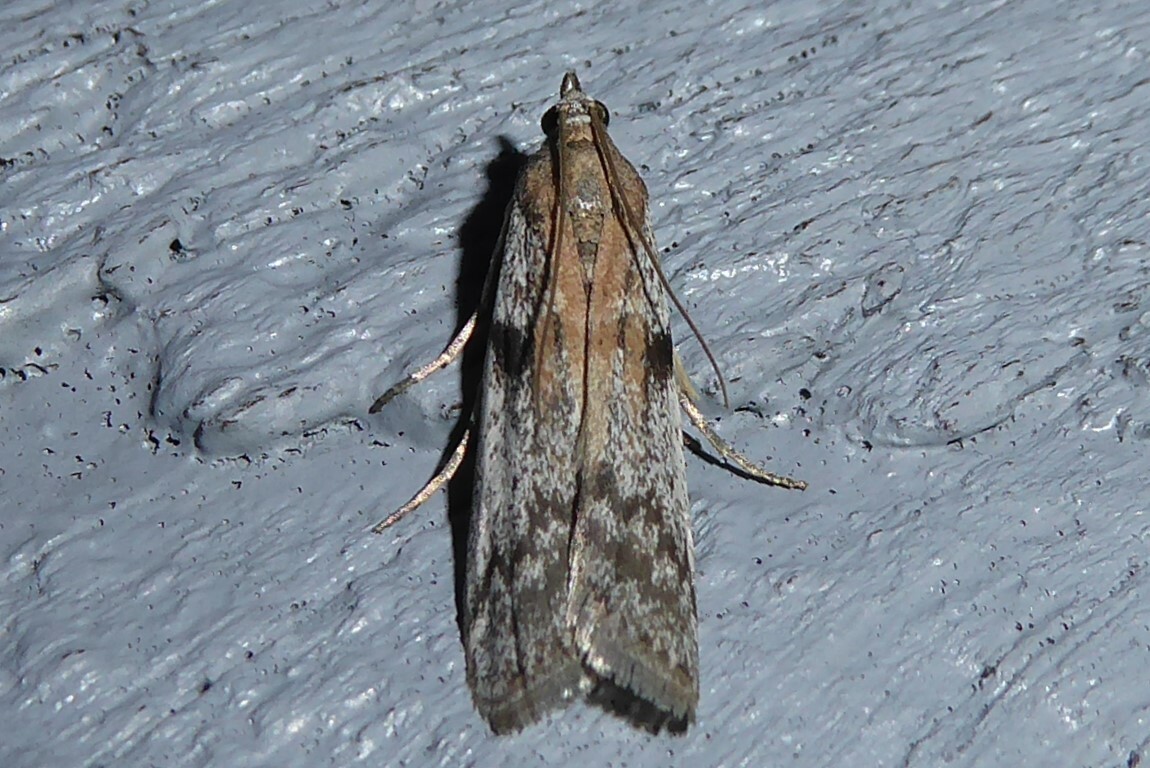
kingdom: Animalia
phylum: Arthropoda
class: Insecta
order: Lepidoptera
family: Pyralidae
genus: Patagoniodes
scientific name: Patagoniodes farinaria
